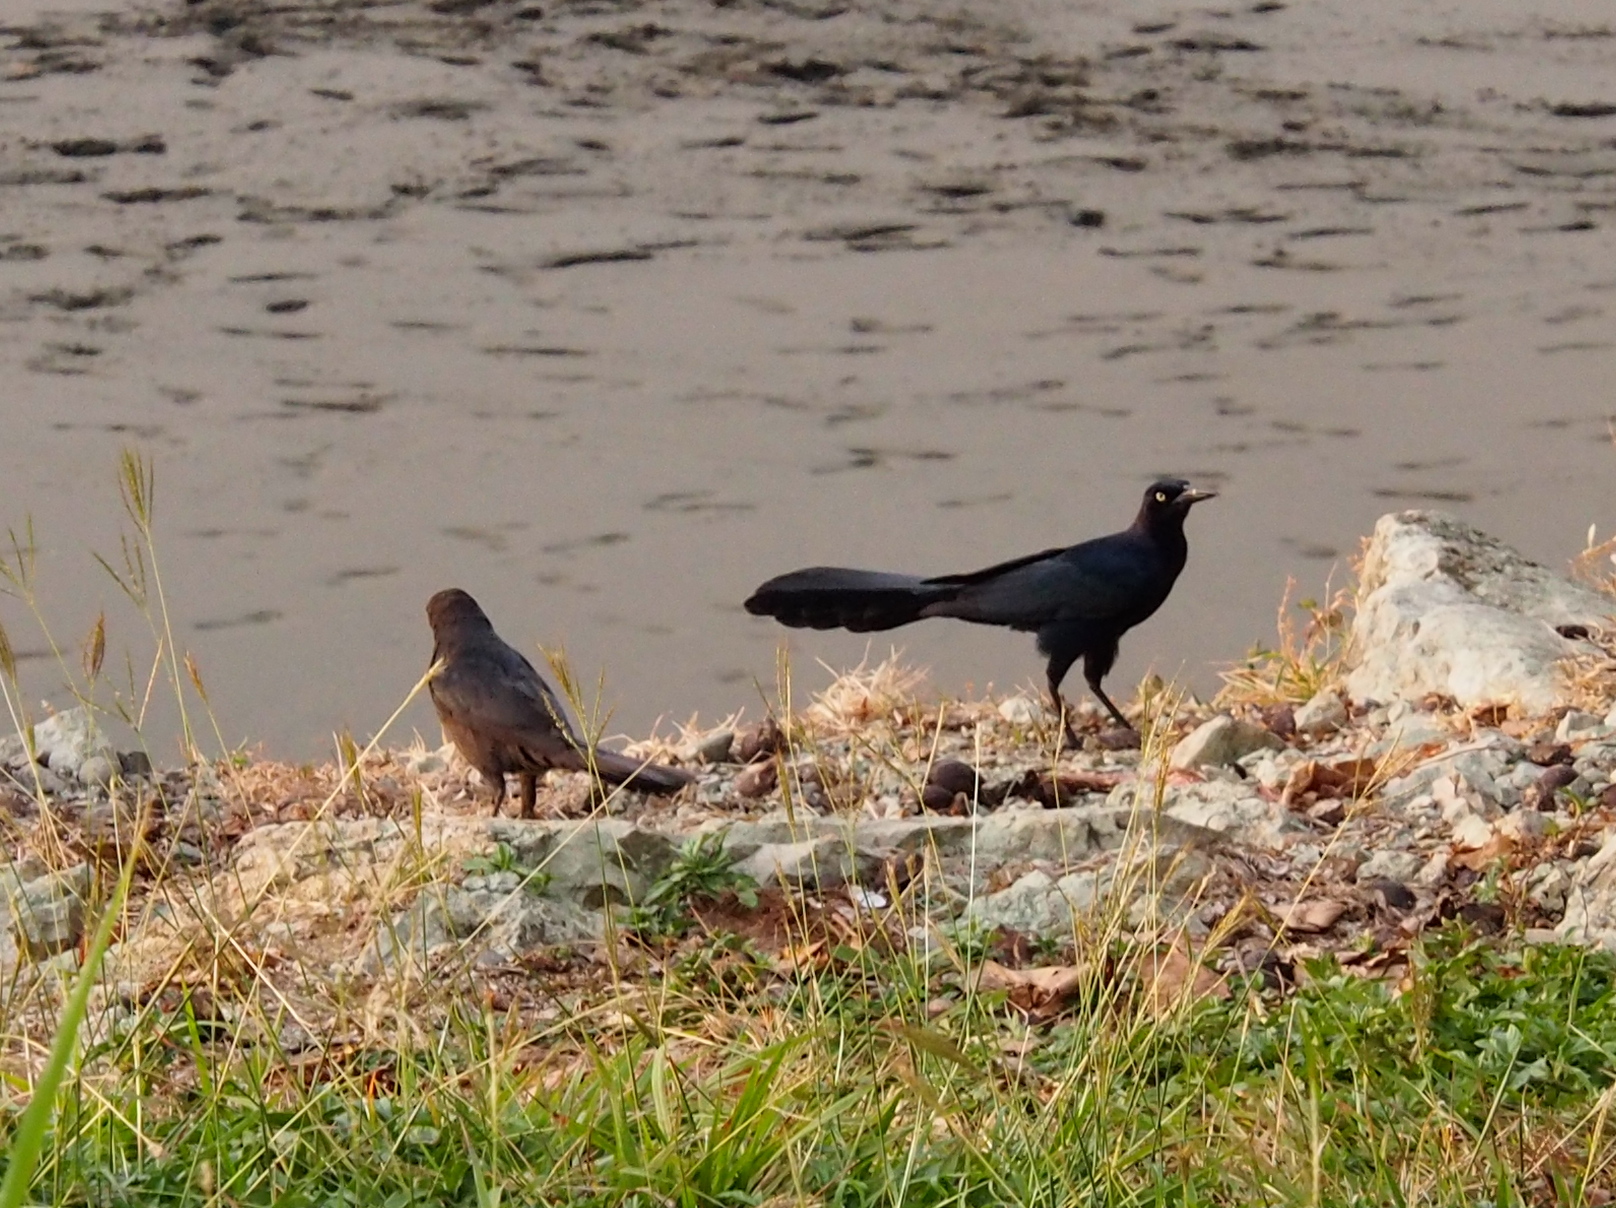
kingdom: Animalia
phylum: Chordata
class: Aves
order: Passeriformes
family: Icteridae
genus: Quiscalus
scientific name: Quiscalus mexicanus
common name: Great-tailed grackle
